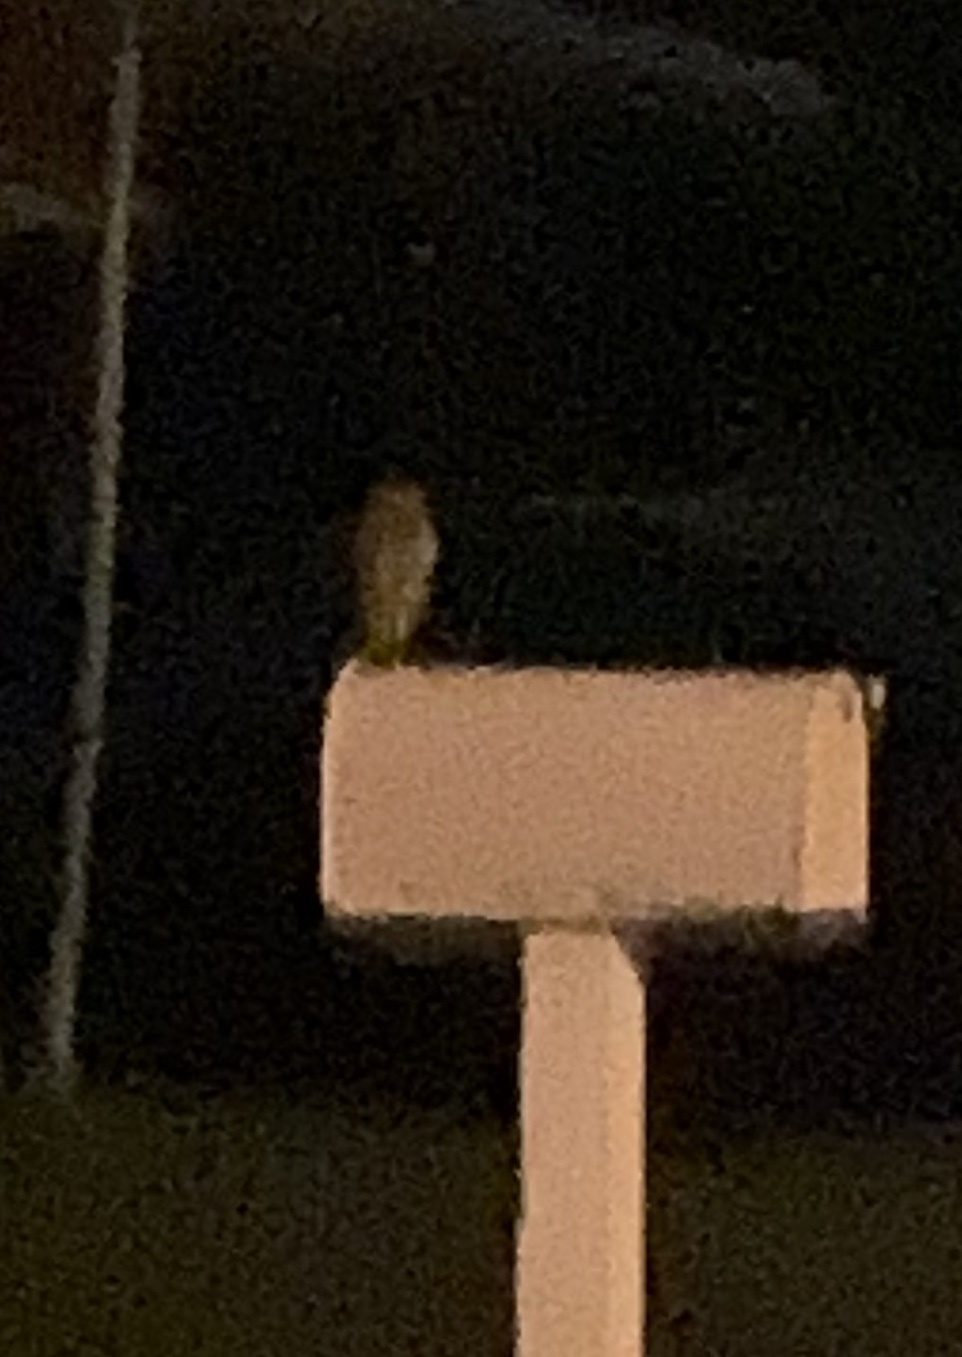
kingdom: Animalia
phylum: Chordata
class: Aves
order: Strigiformes
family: Strigidae
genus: Athene
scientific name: Athene cunicularia
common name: Burrowing owl
